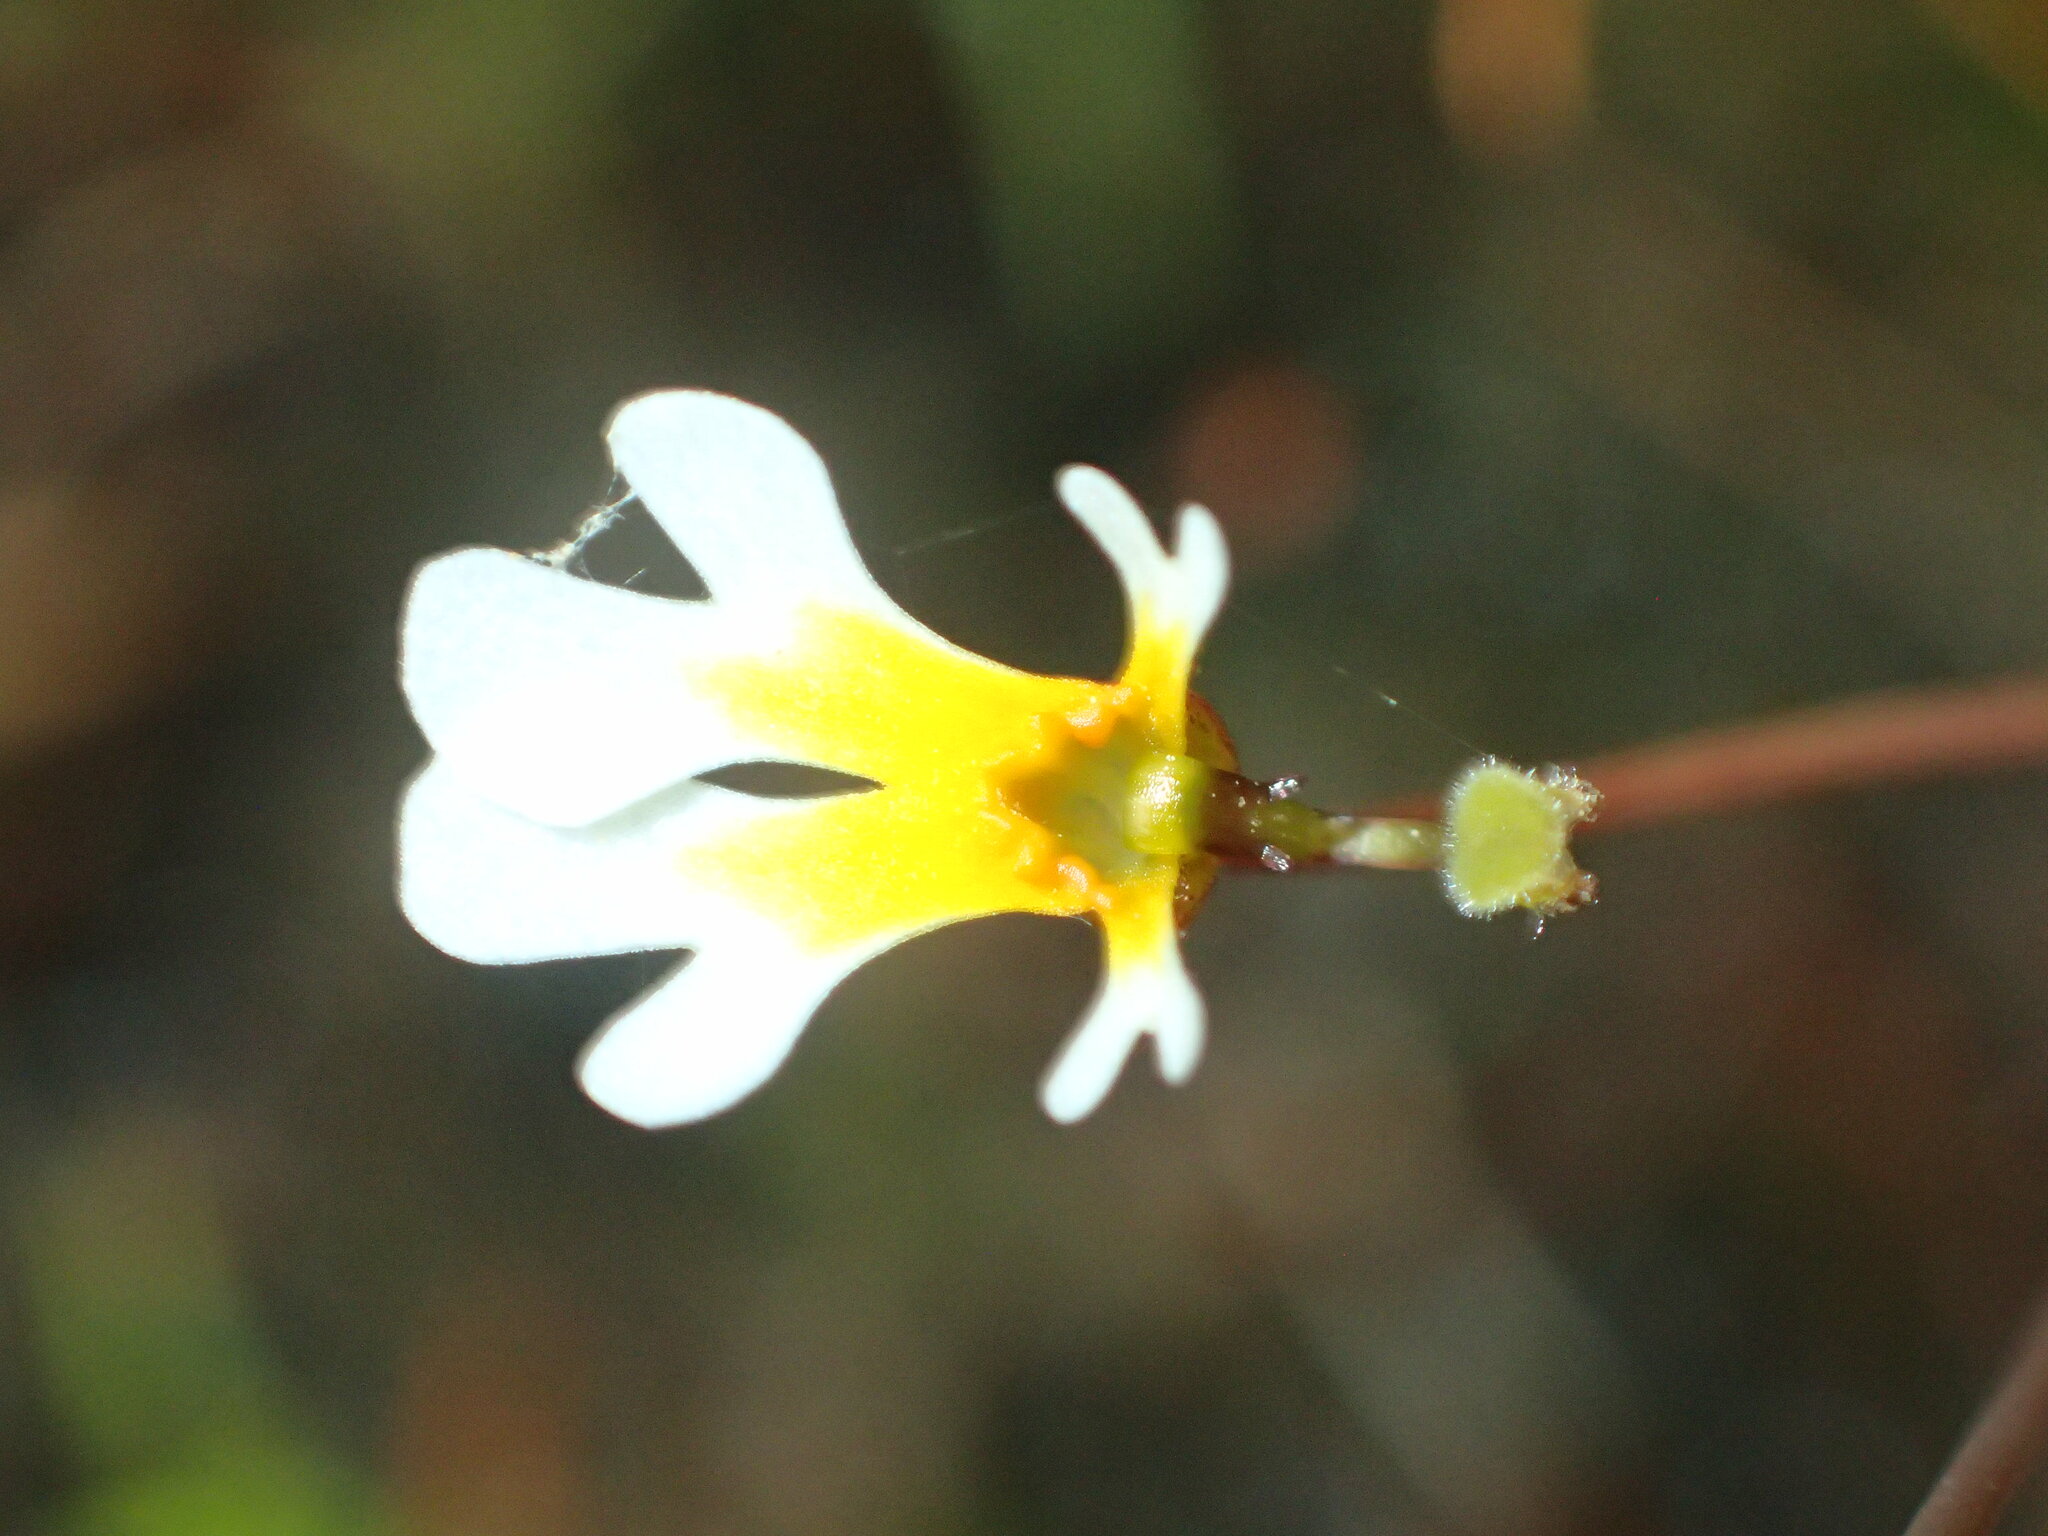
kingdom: Plantae
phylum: Tracheophyta
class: Magnoliopsida
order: Asterales
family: Stylidiaceae
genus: Stylidium
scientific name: Stylidium oviflorum
